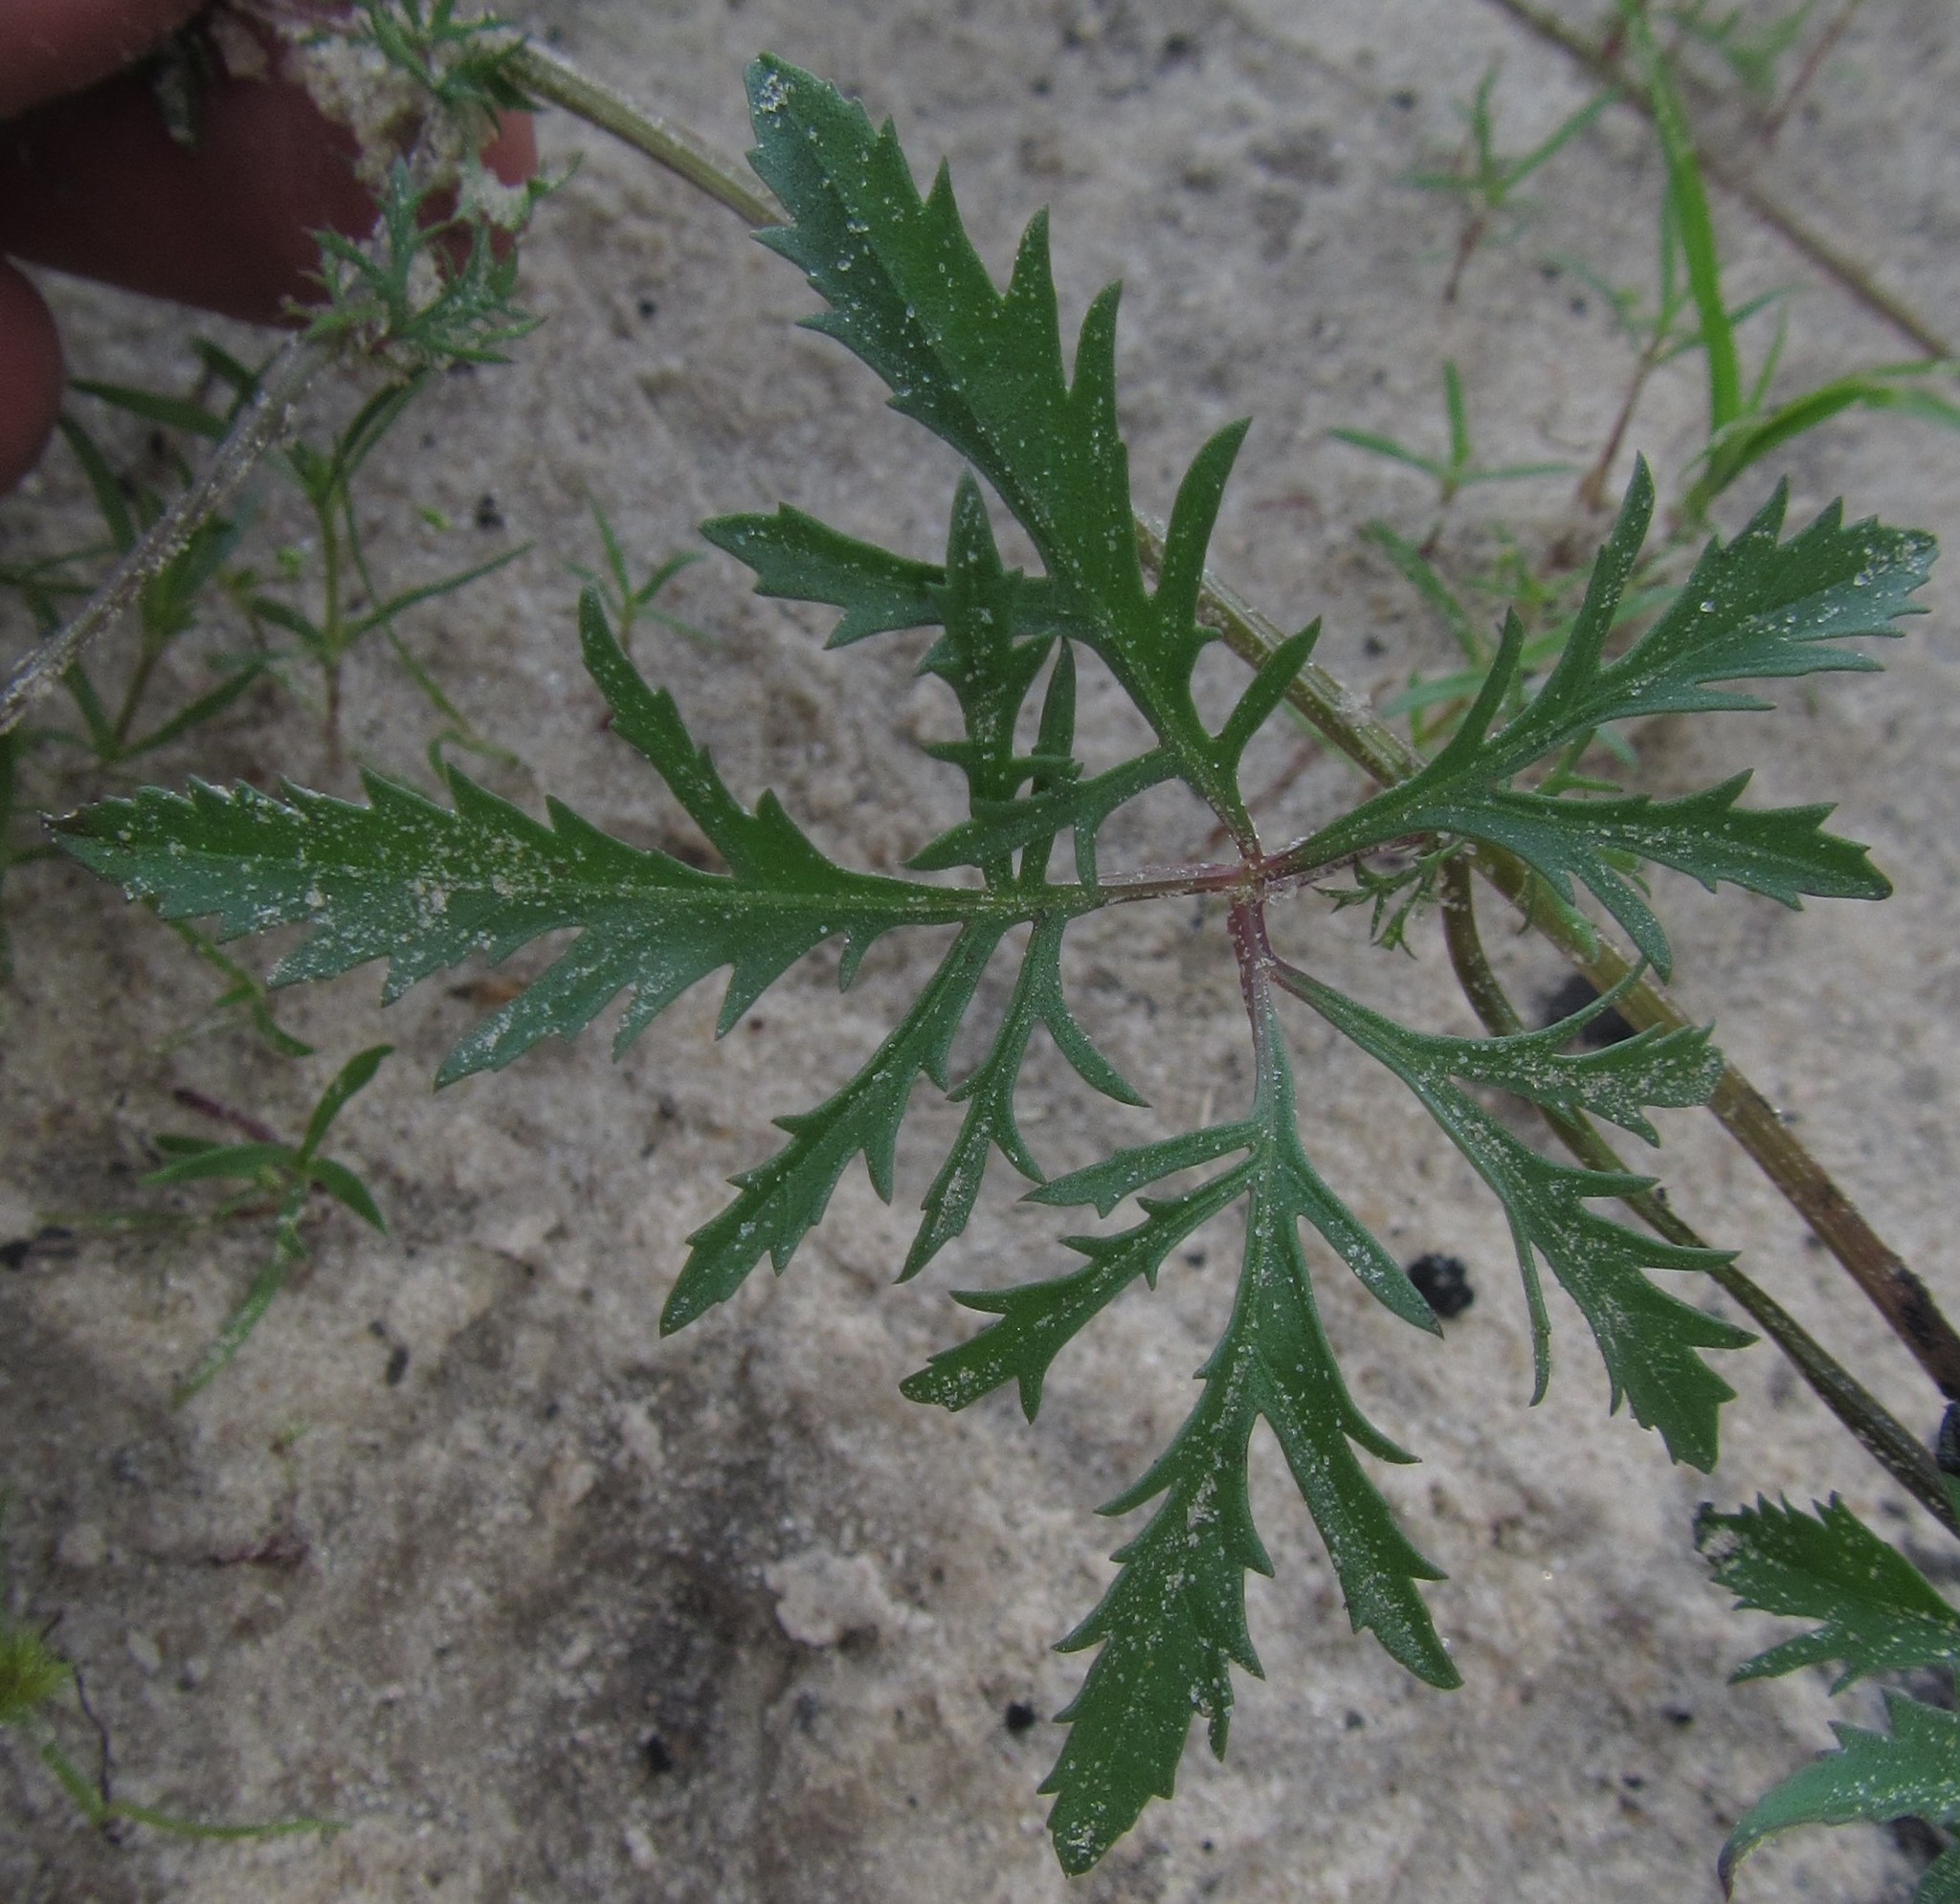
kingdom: Plantae
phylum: Tracheophyta
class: Magnoliopsida
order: Solanales
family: Convolvulaceae
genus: Ipomoea
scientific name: Ipomoea coptica
